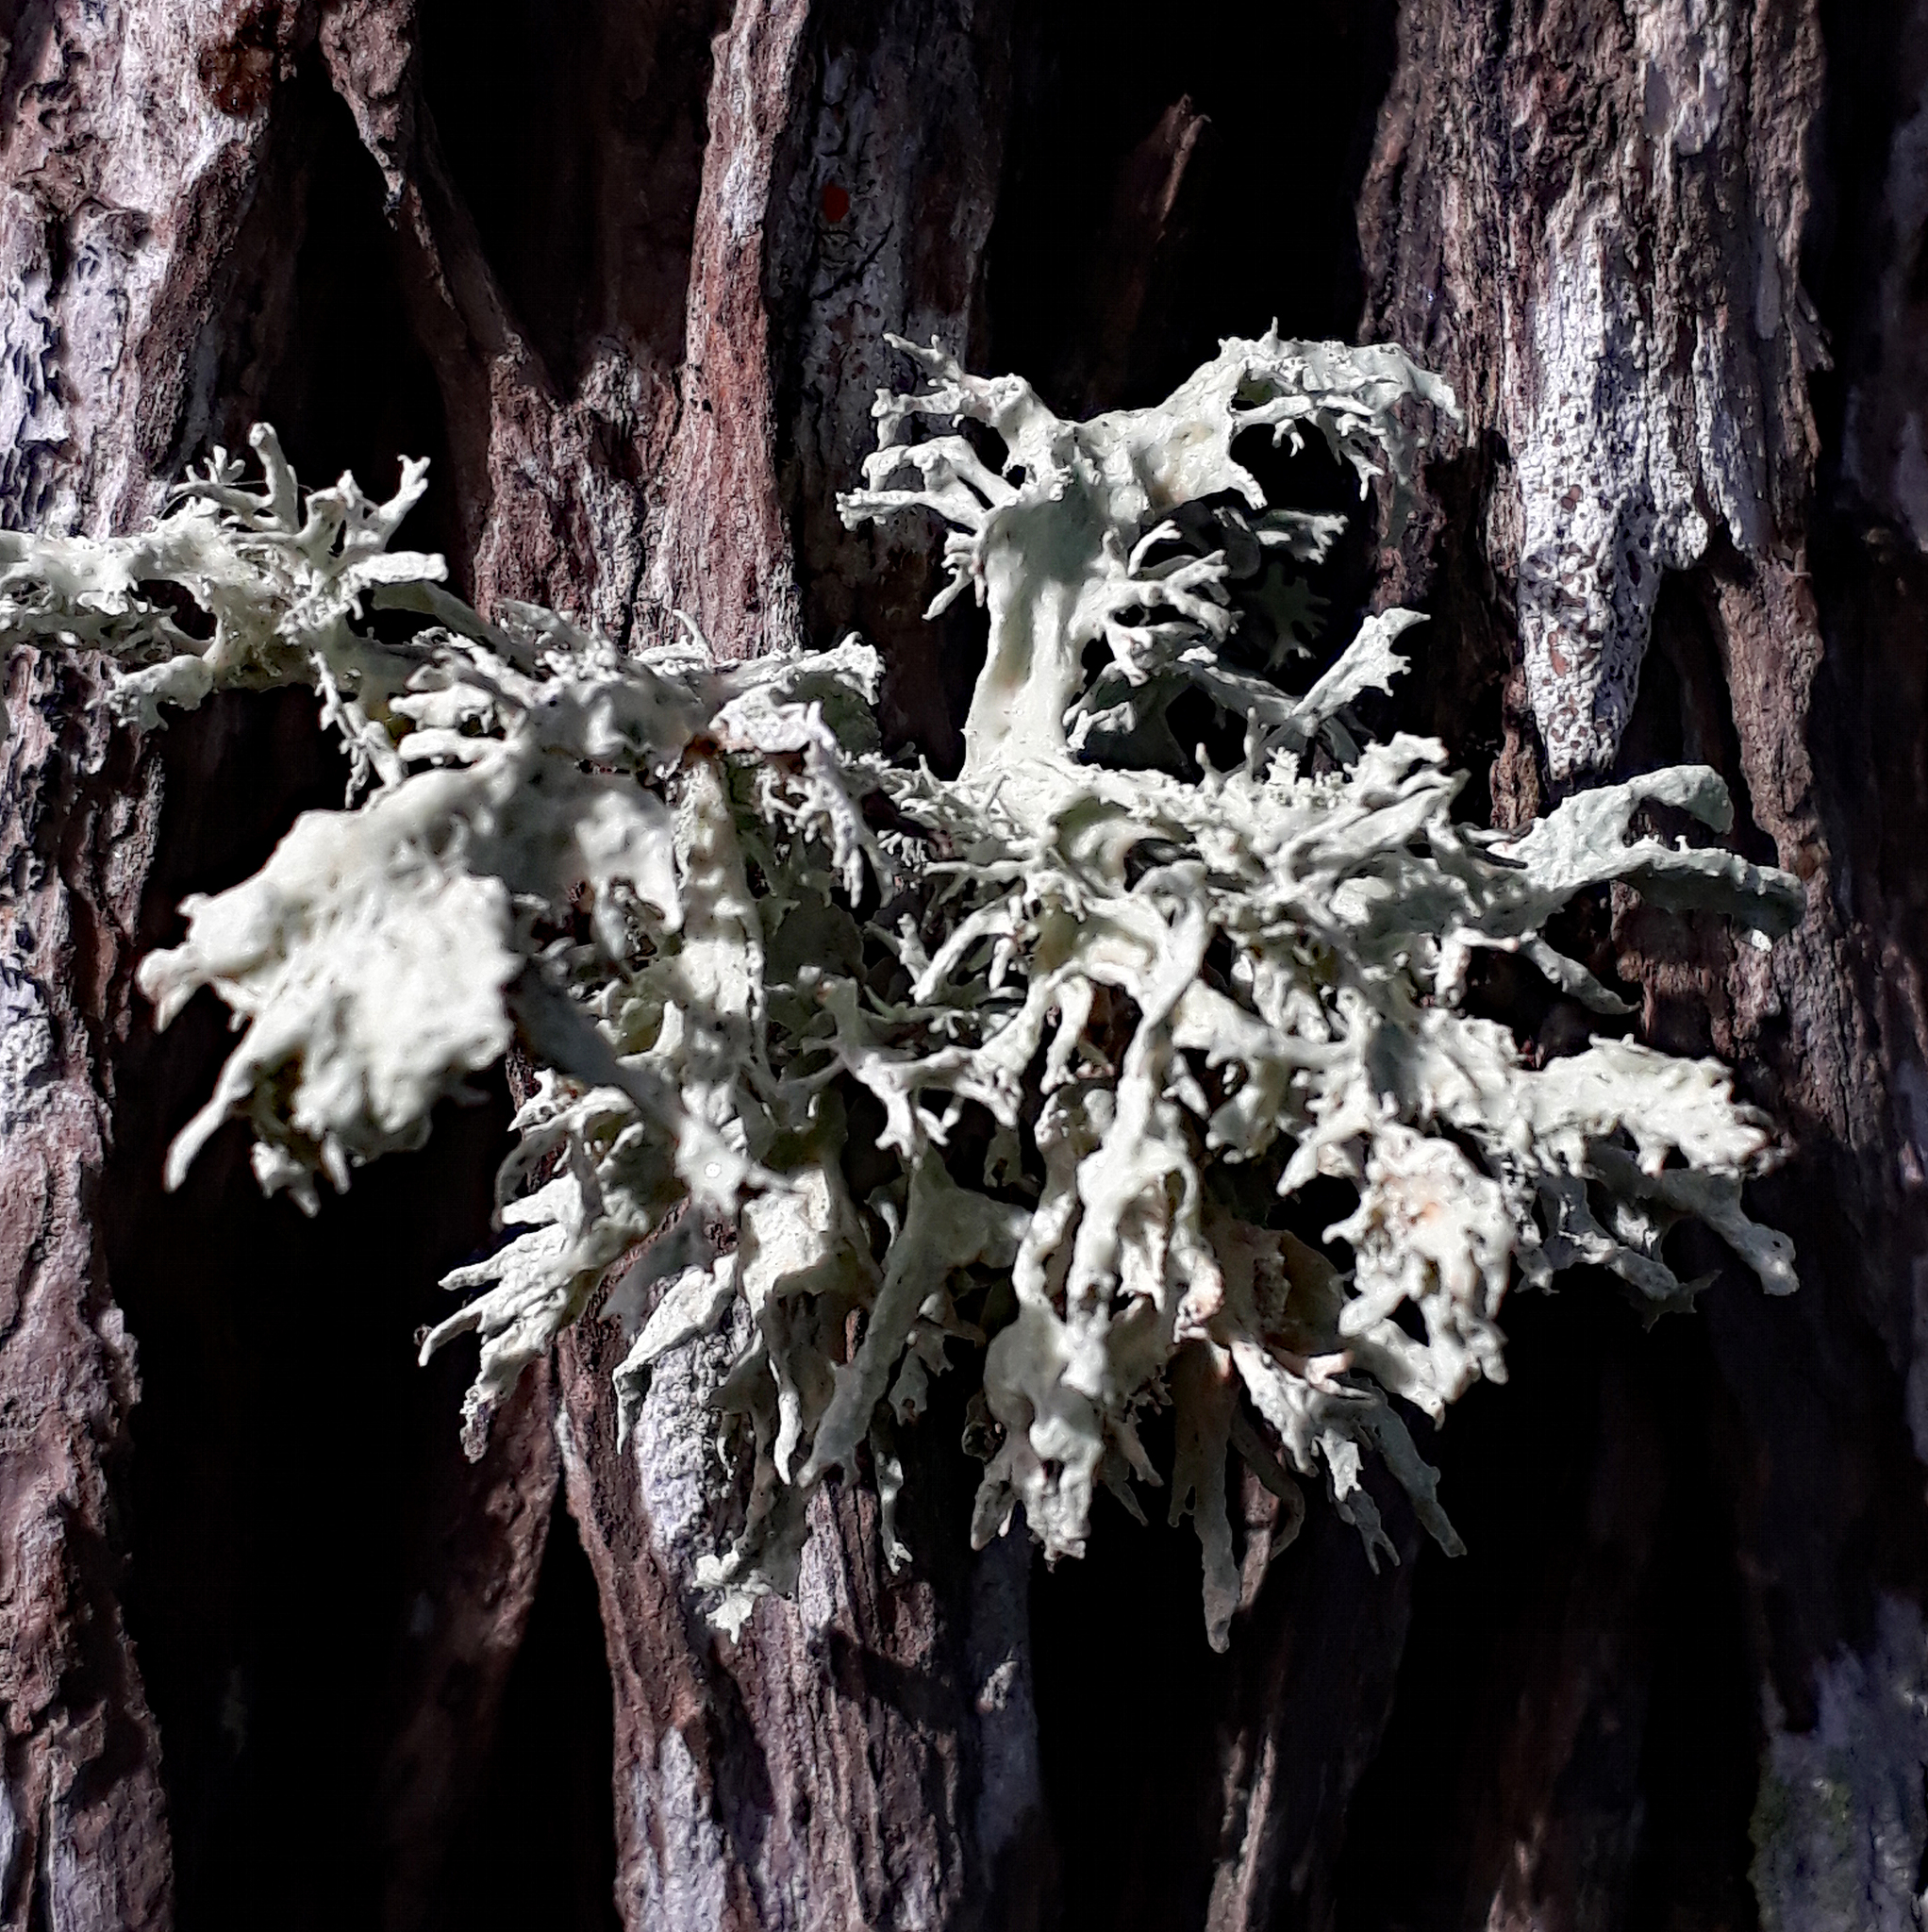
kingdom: Fungi
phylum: Ascomycota
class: Lecanoromycetes
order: Lecanorales
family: Ramalinaceae
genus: Ramalina
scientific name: Ramalina canariensis
